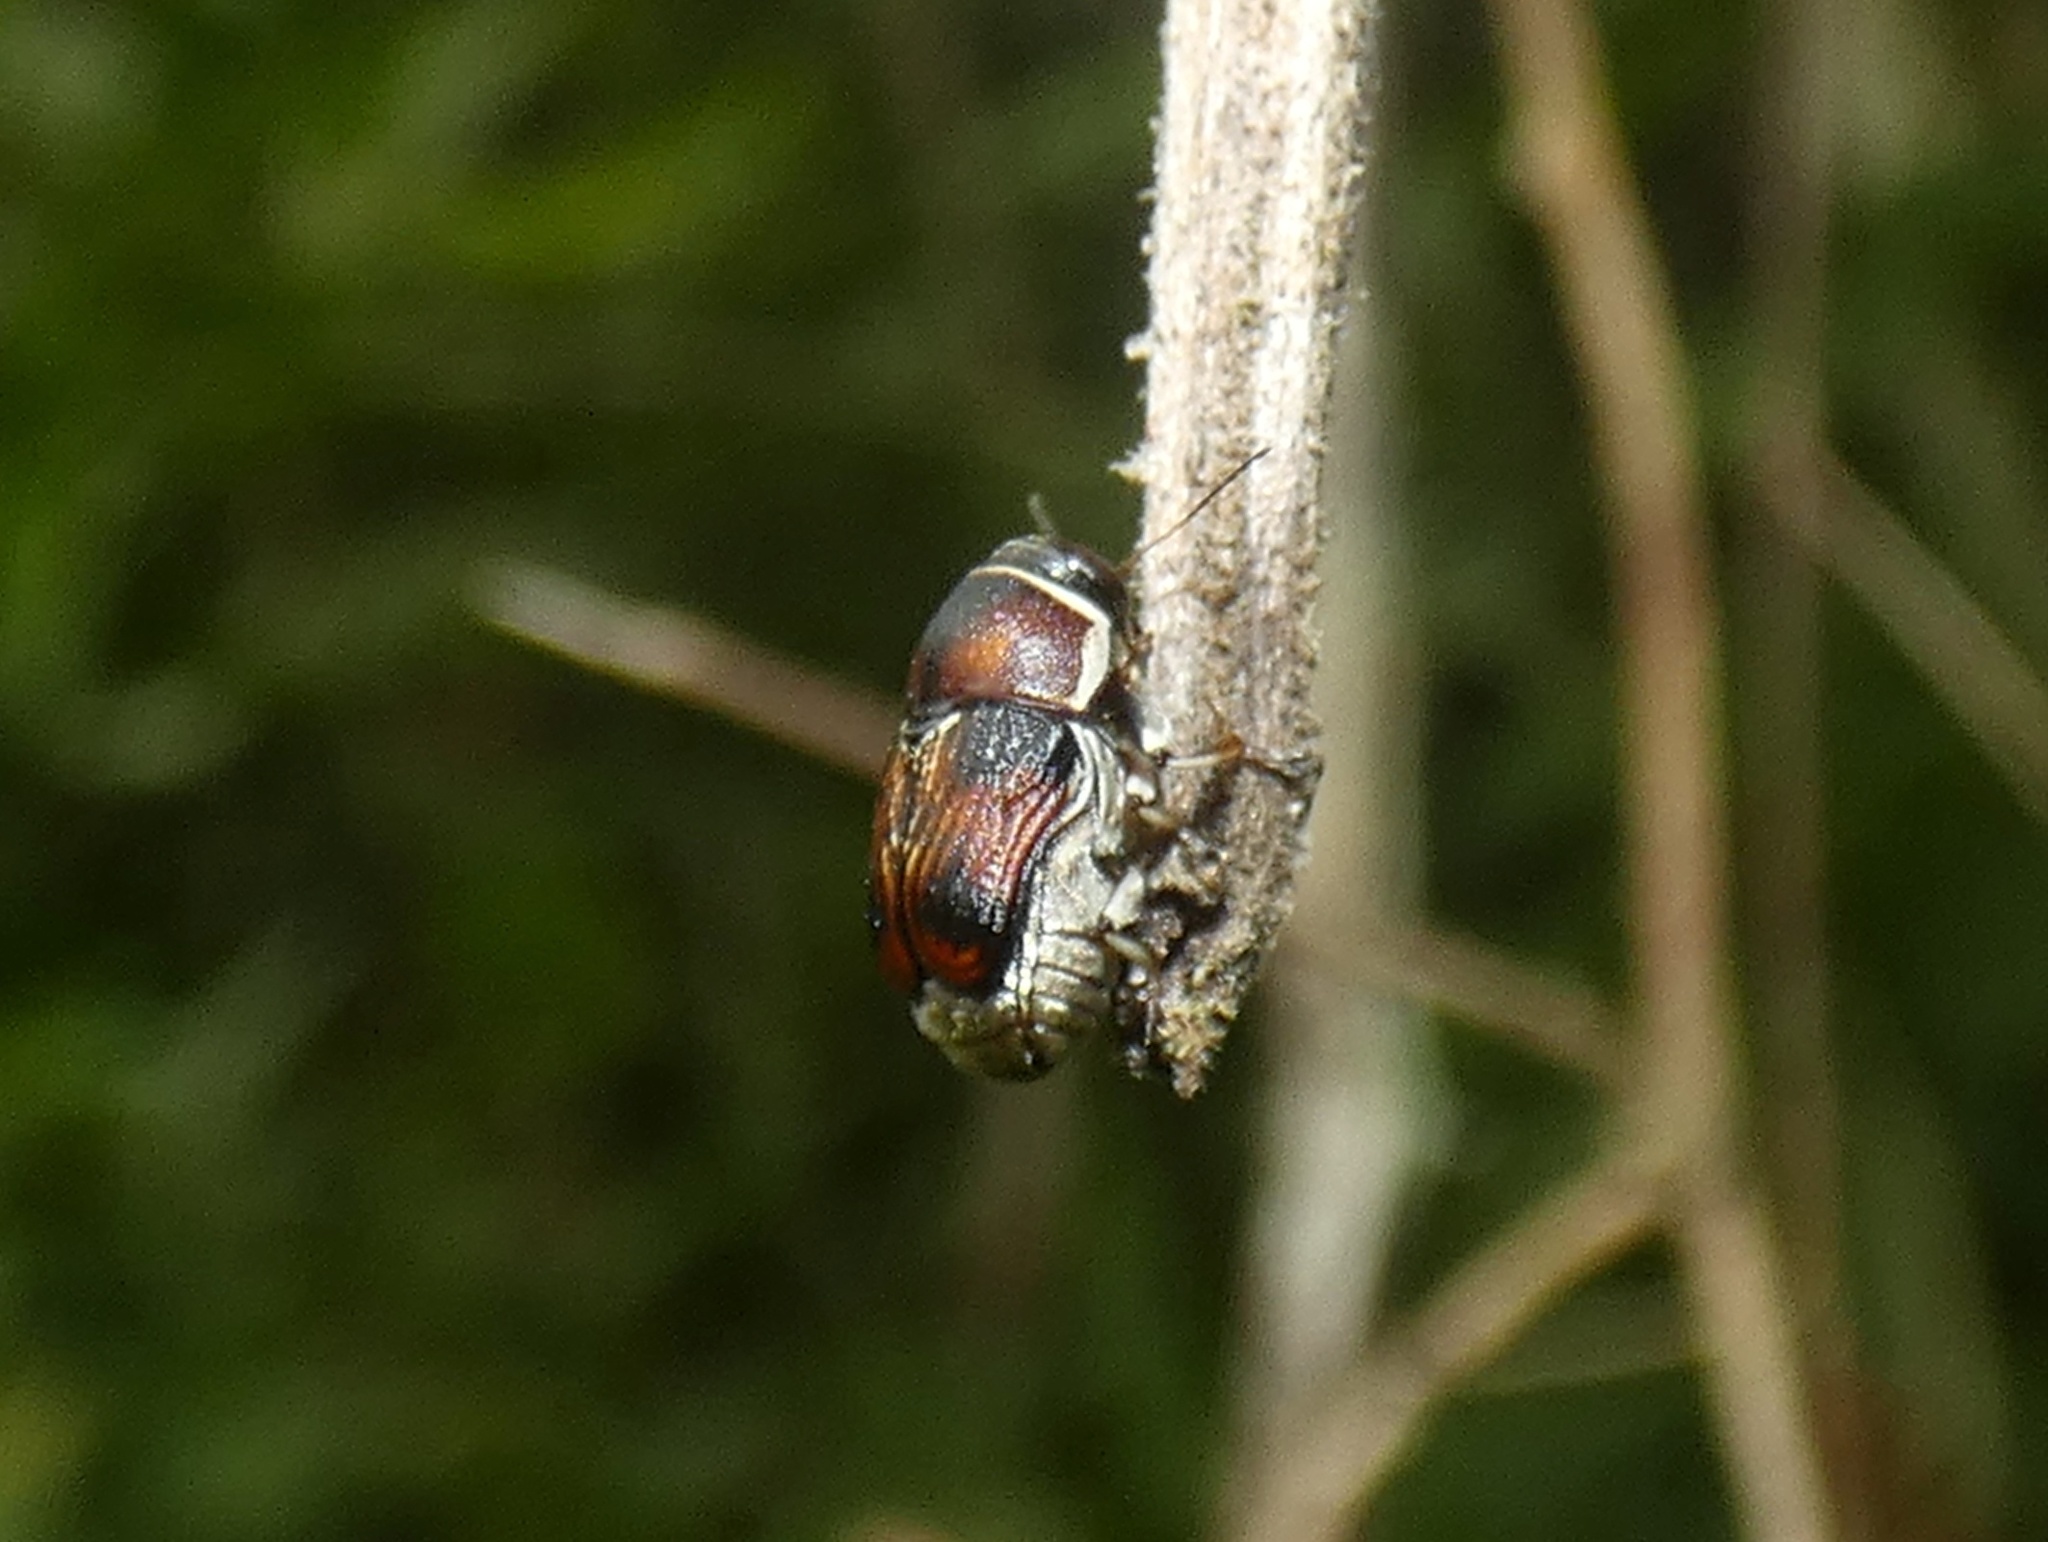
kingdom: Animalia
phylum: Arthropoda
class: Insecta
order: Coleoptera
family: Chrysomelidae
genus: Griburius
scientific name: Griburius
